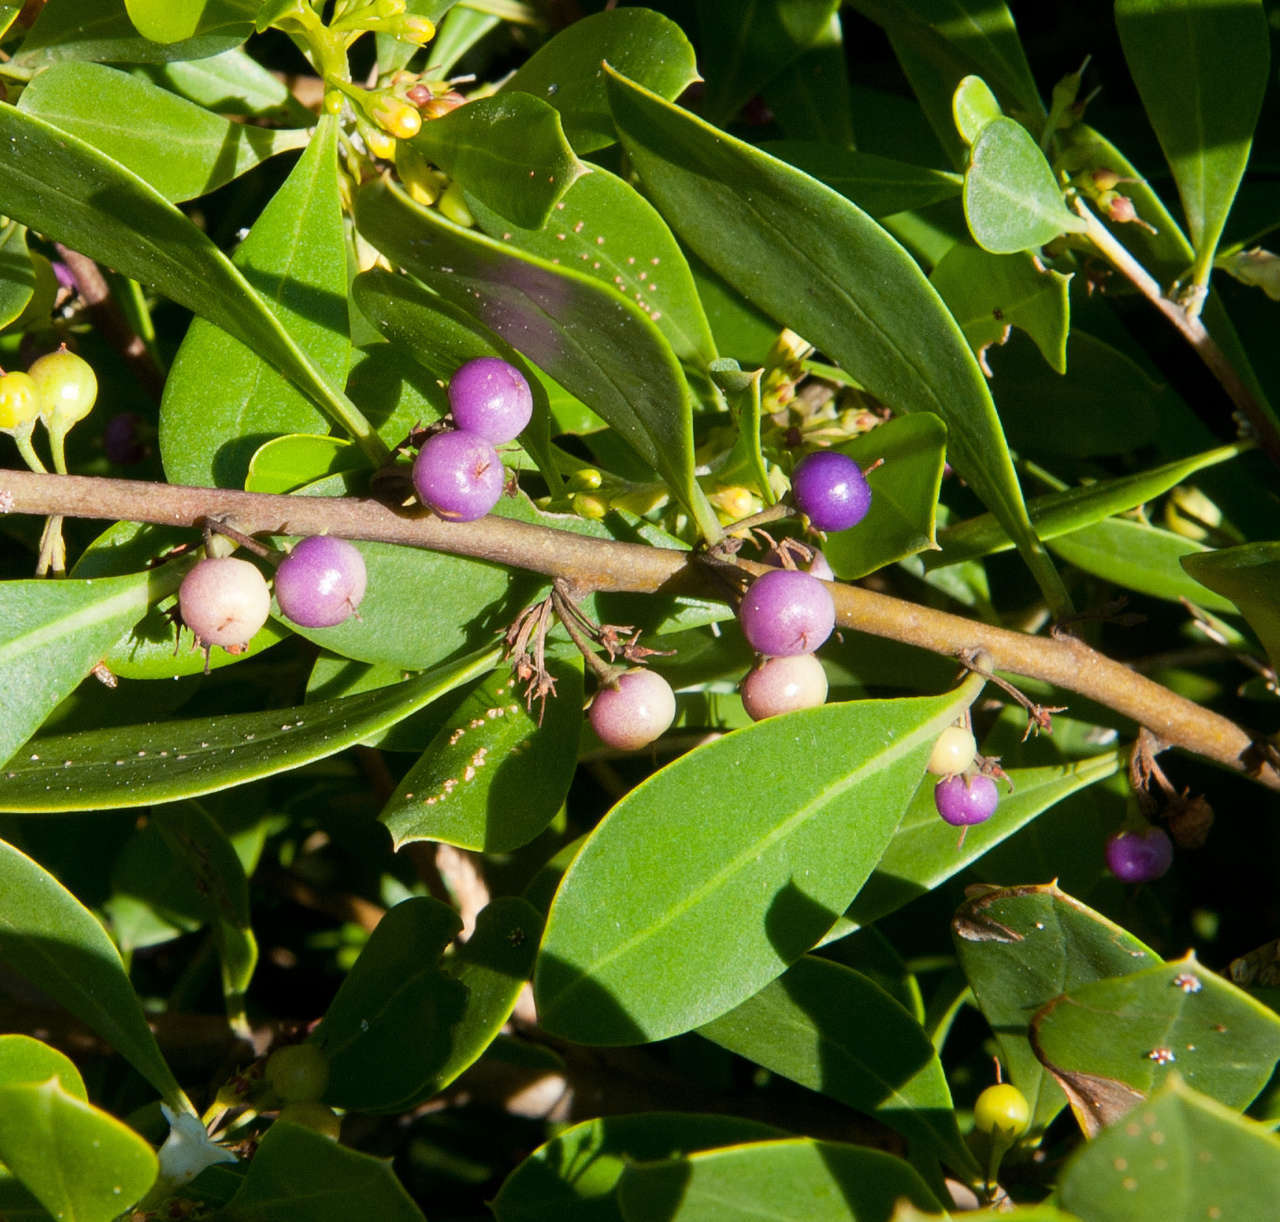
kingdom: Plantae
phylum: Tracheophyta
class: Magnoliopsida
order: Lamiales
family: Scrophulariaceae
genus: Myoporum
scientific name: Myoporum boninense
